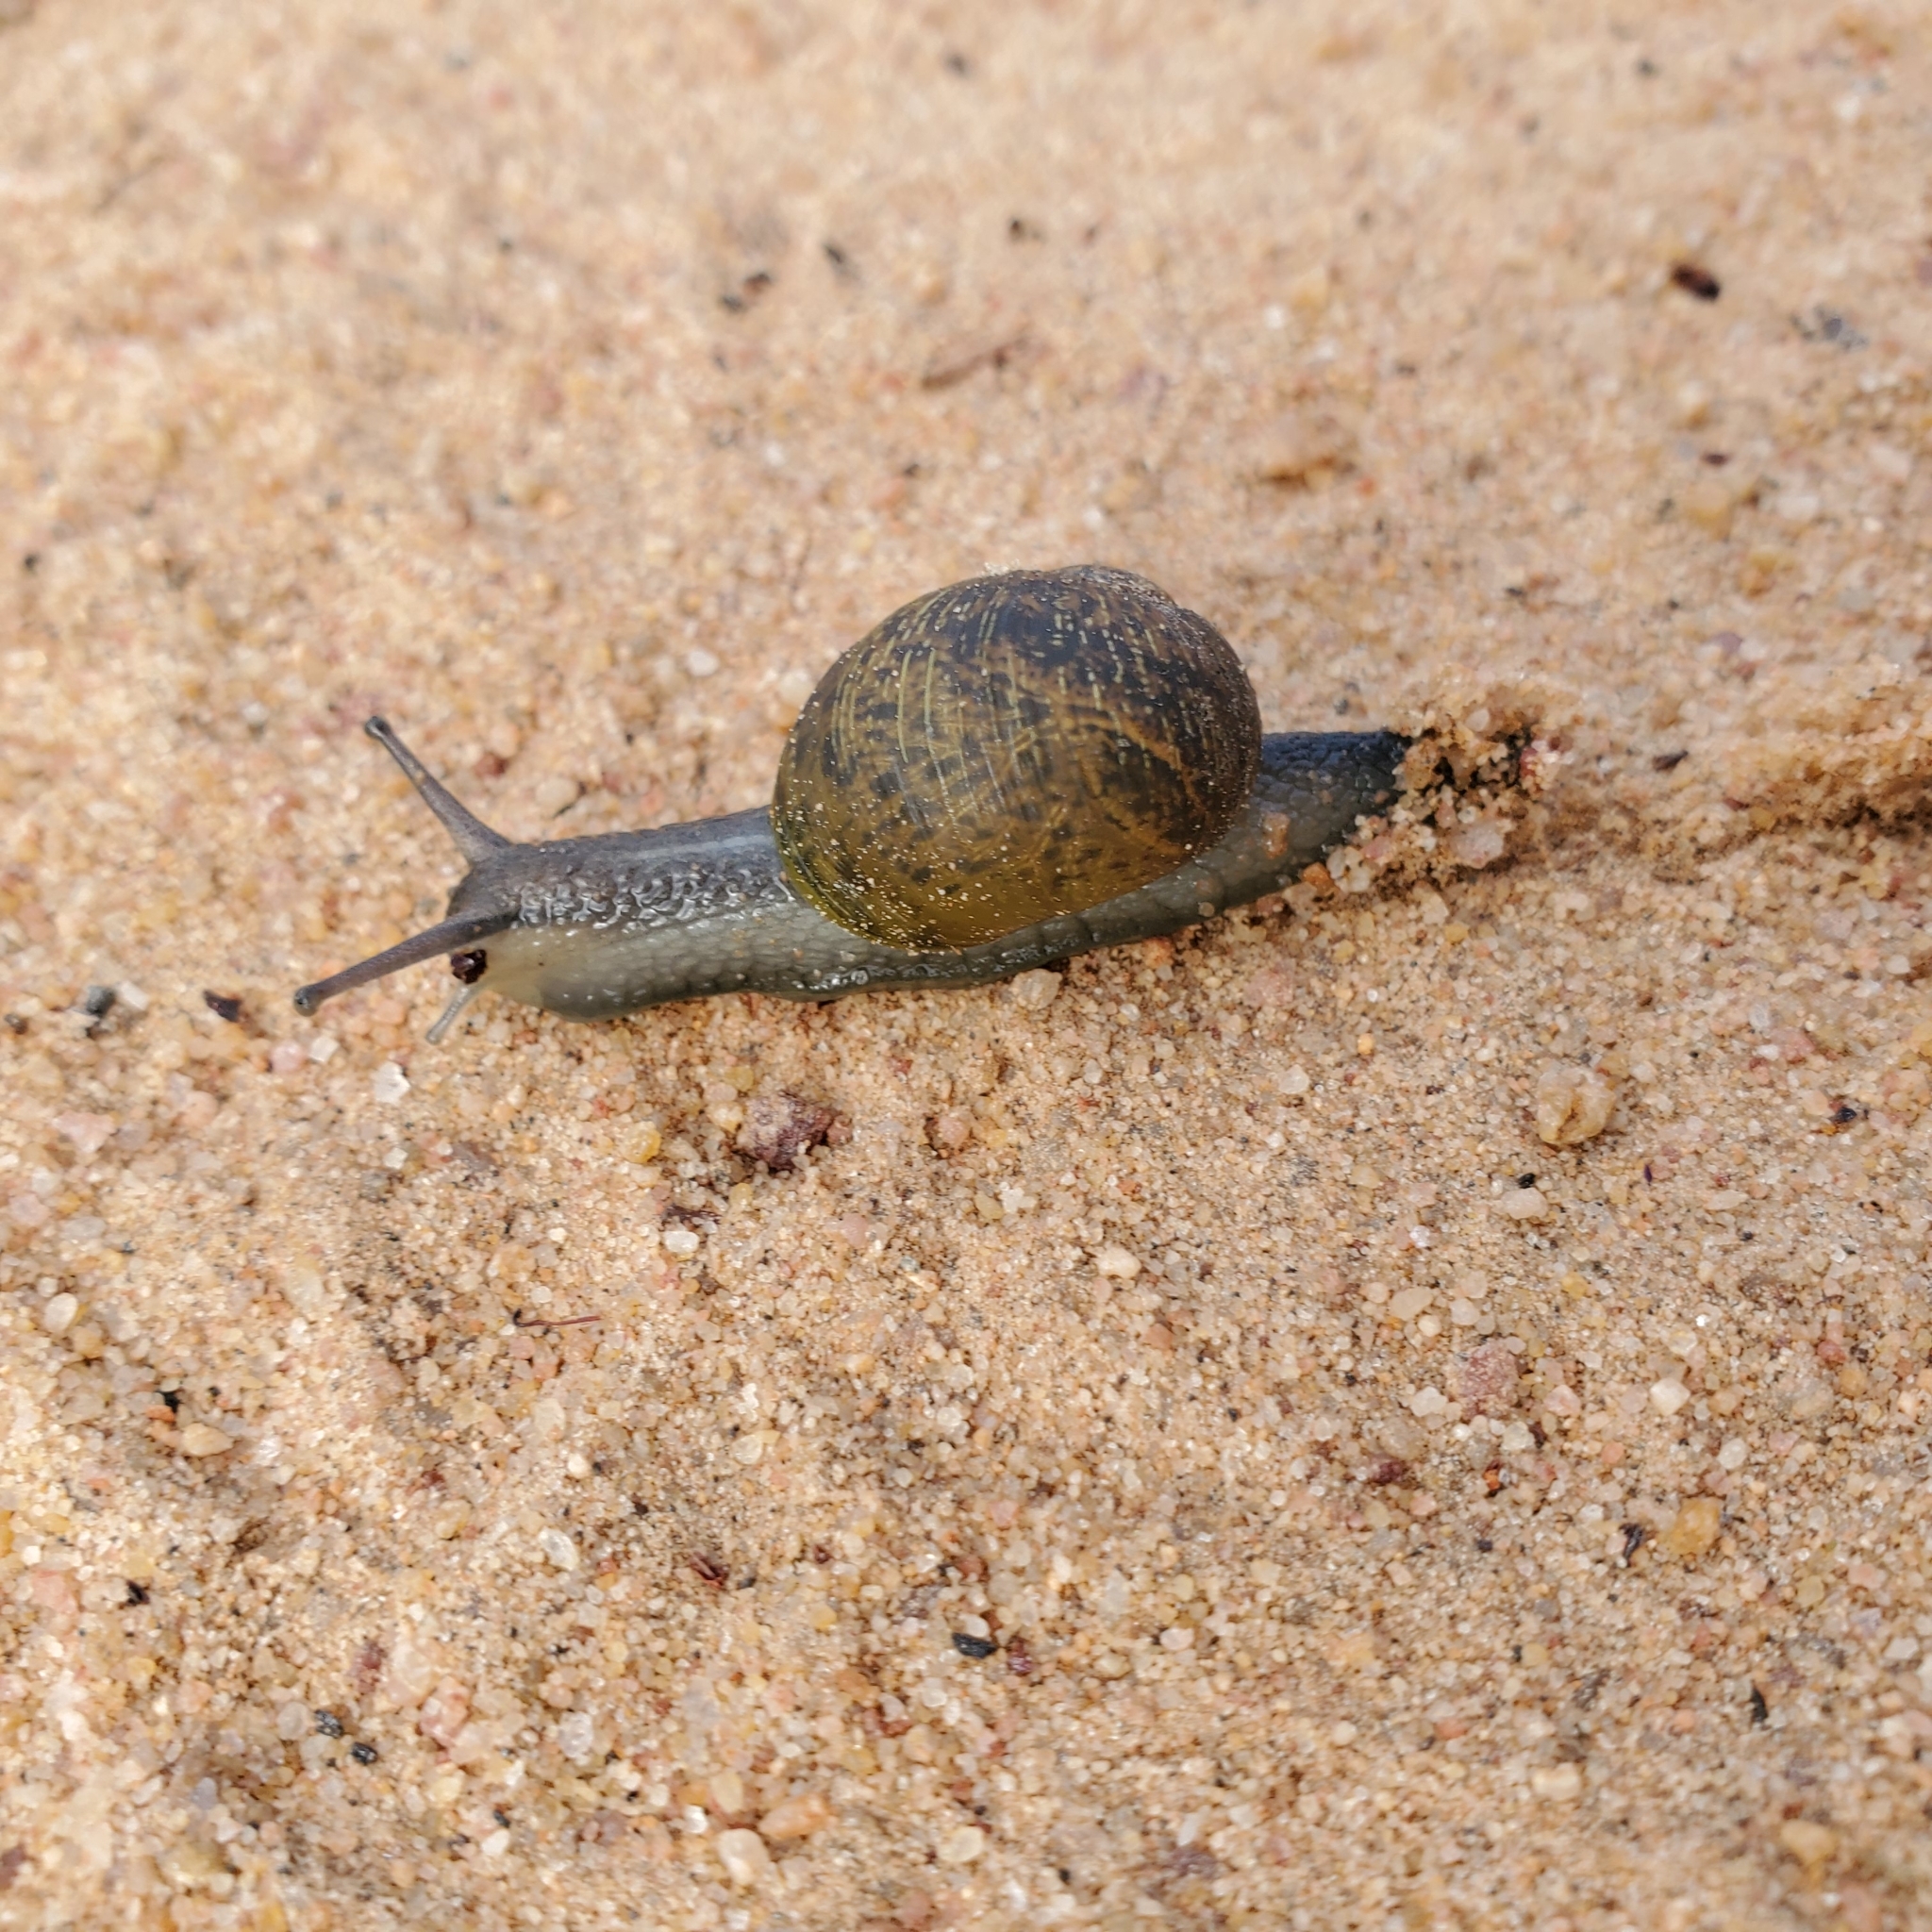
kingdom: Animalia
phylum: Mollusca
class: Gastropoda
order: Stylommatophora
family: Helicidae
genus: Cantareus
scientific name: Cantareus apertus
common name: Green gardensnail
